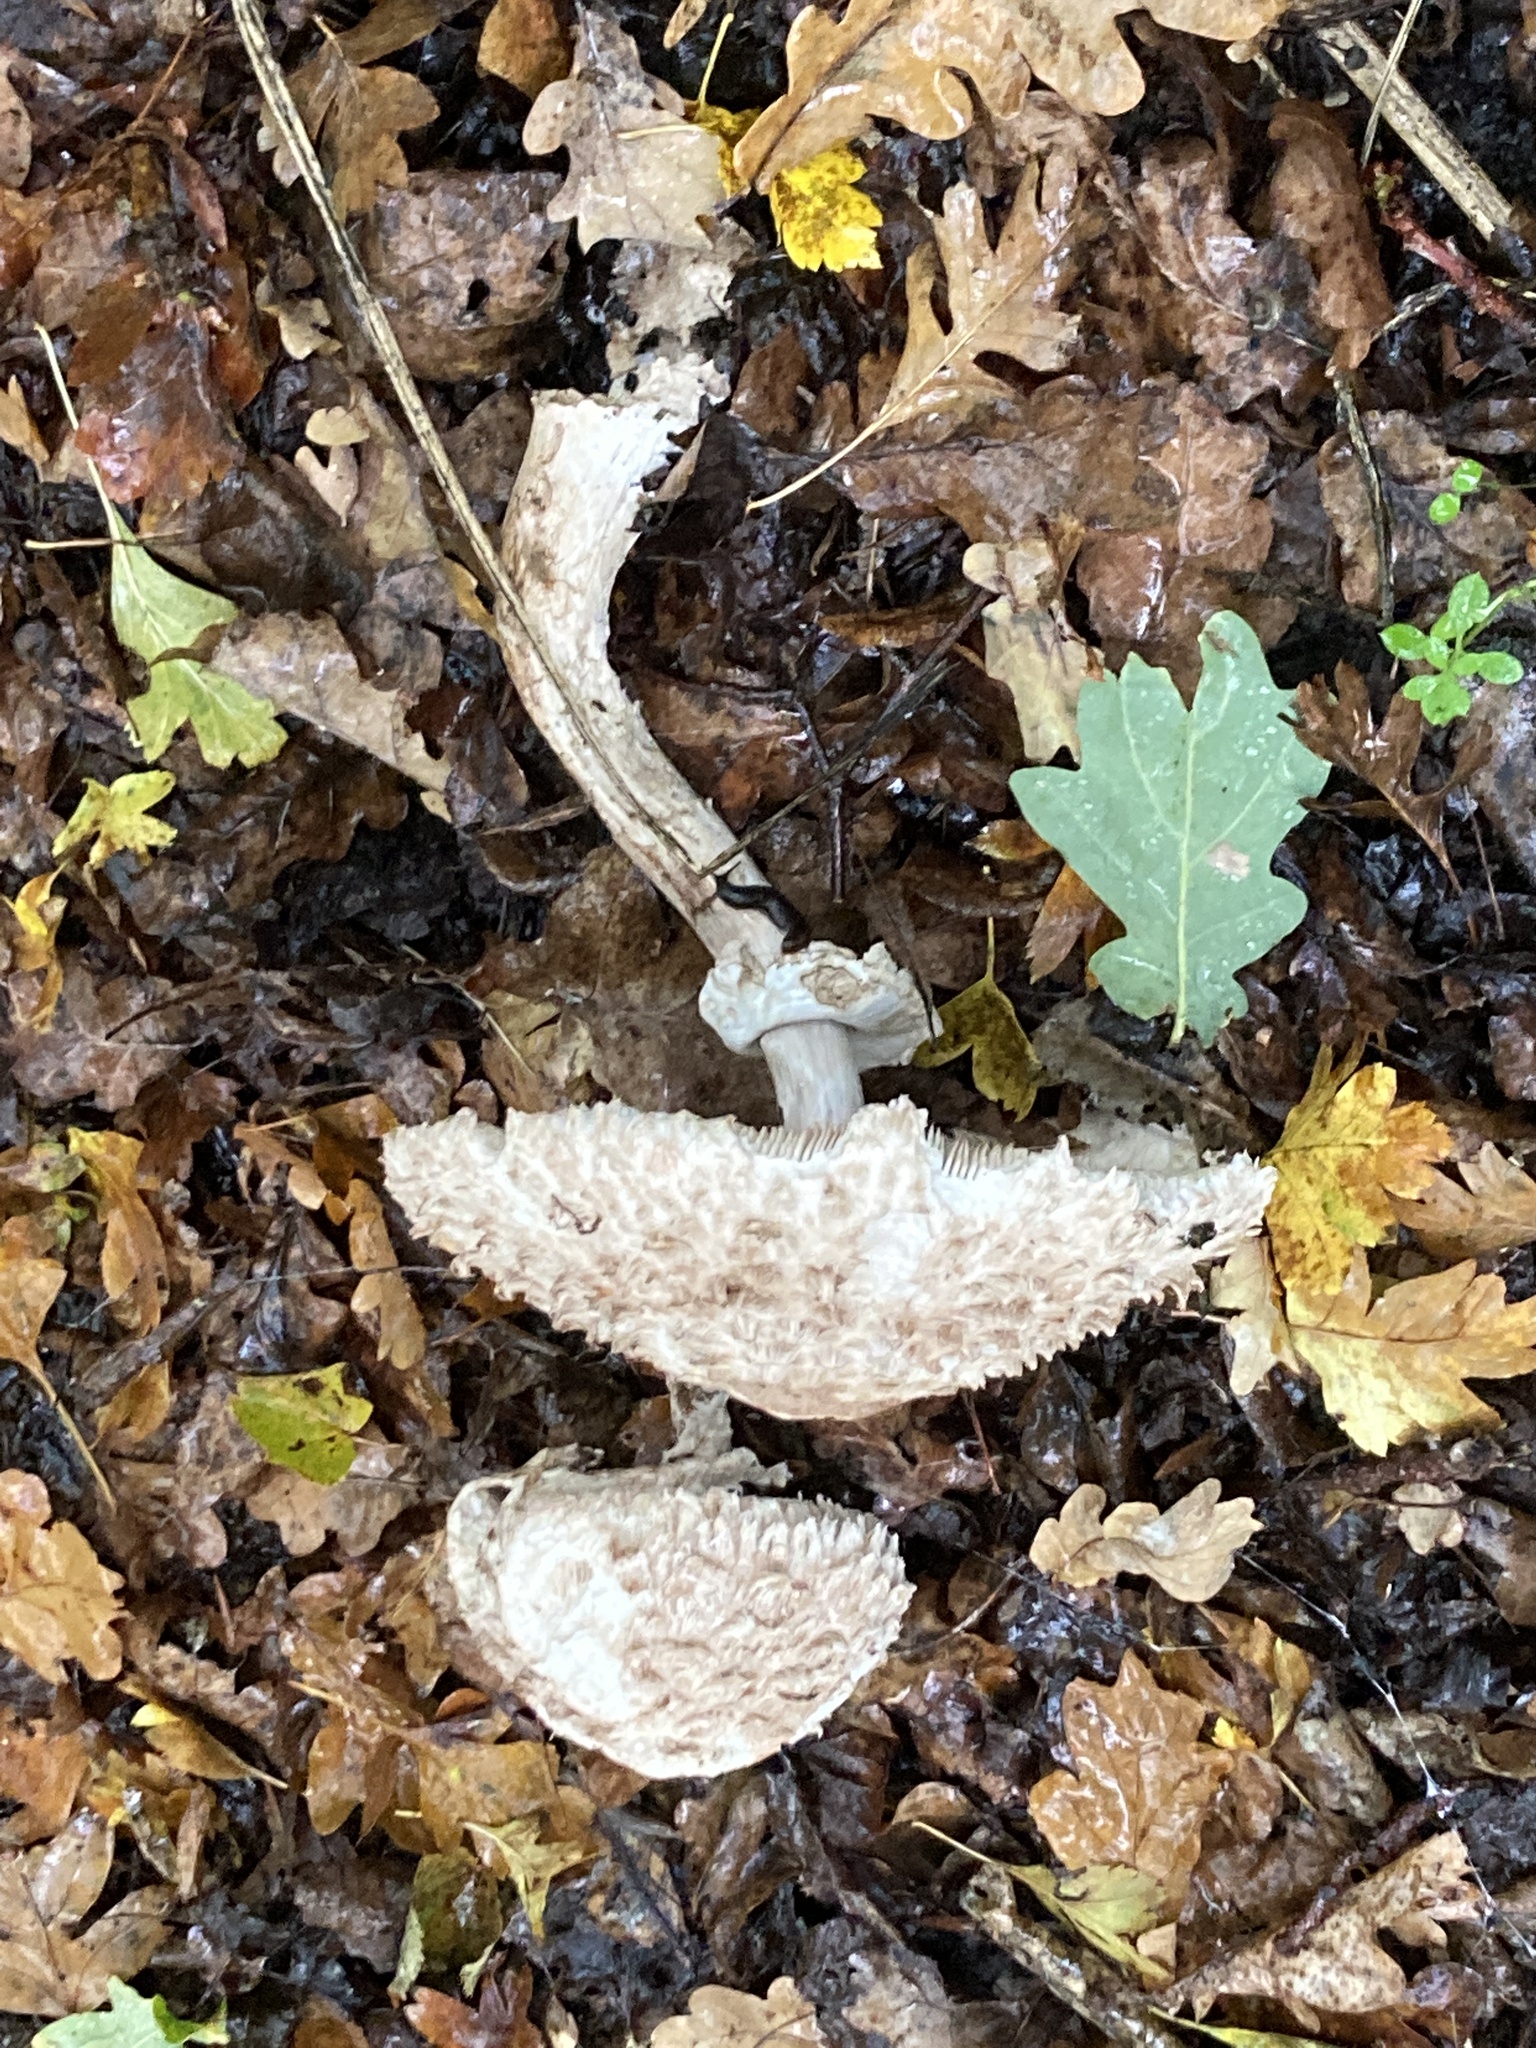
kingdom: Fungi
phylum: Basidiomycota
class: Agaricomycetes
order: Agaricales
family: Agaricaceae
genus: Chlorophyllum
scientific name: Chlorophyllum rhacodes
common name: Shaggy parasol
